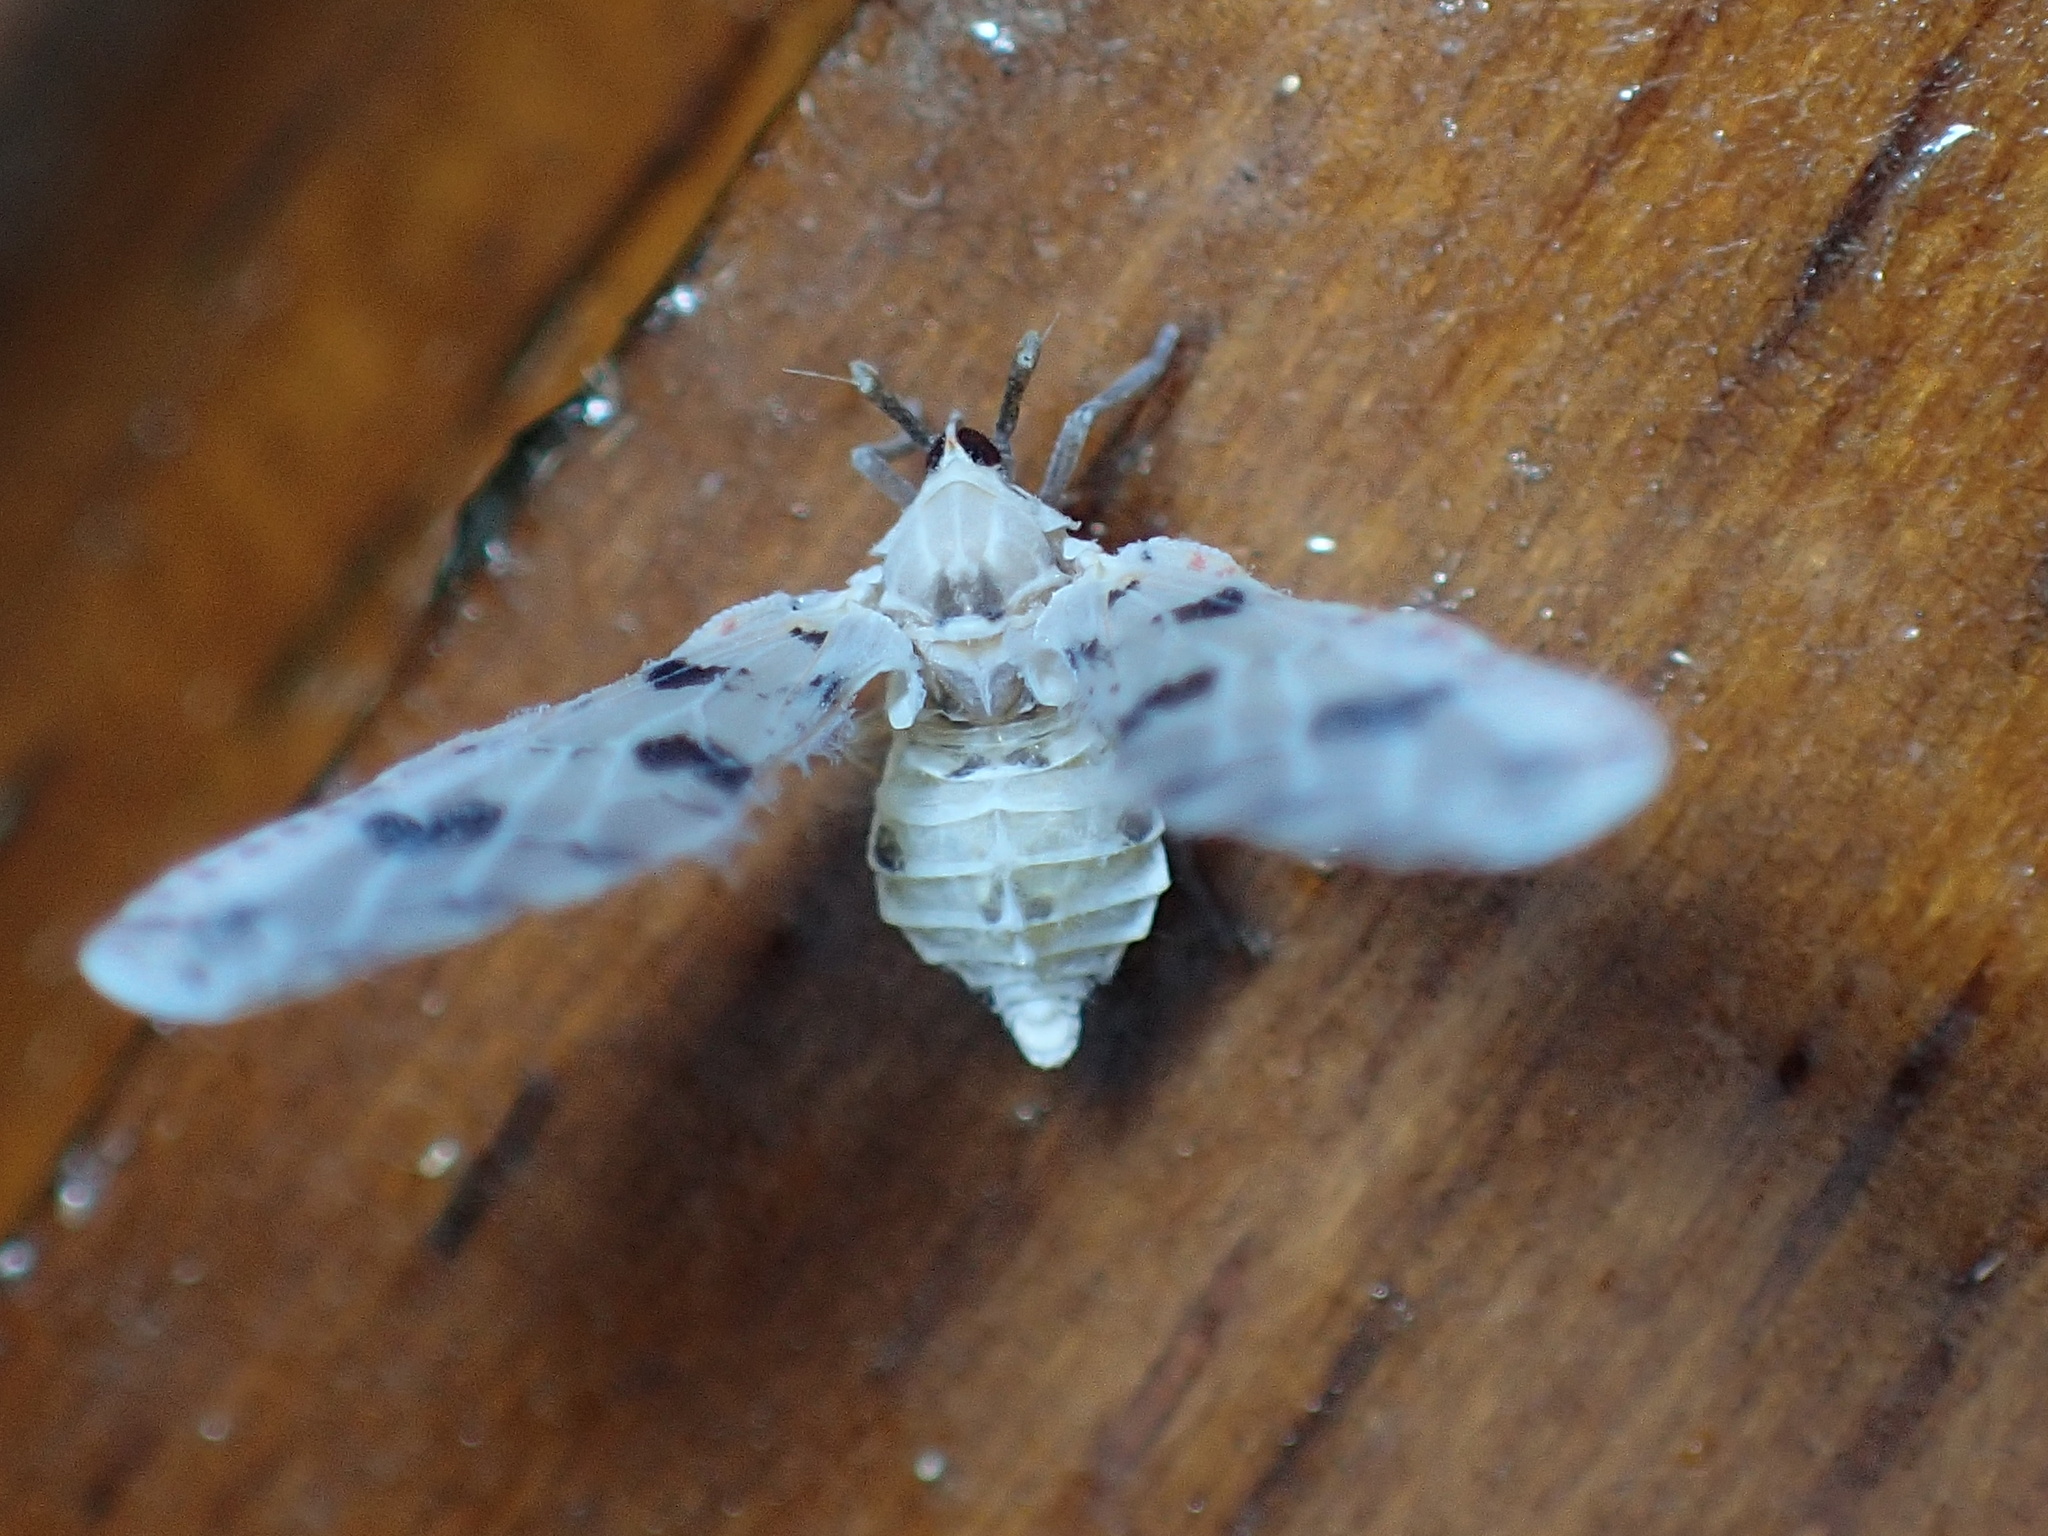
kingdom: Animalia
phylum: Arthropoda
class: Insecta
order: Hemiptera
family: Derbidae
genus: Sikaiana
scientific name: Sikaiana harti
